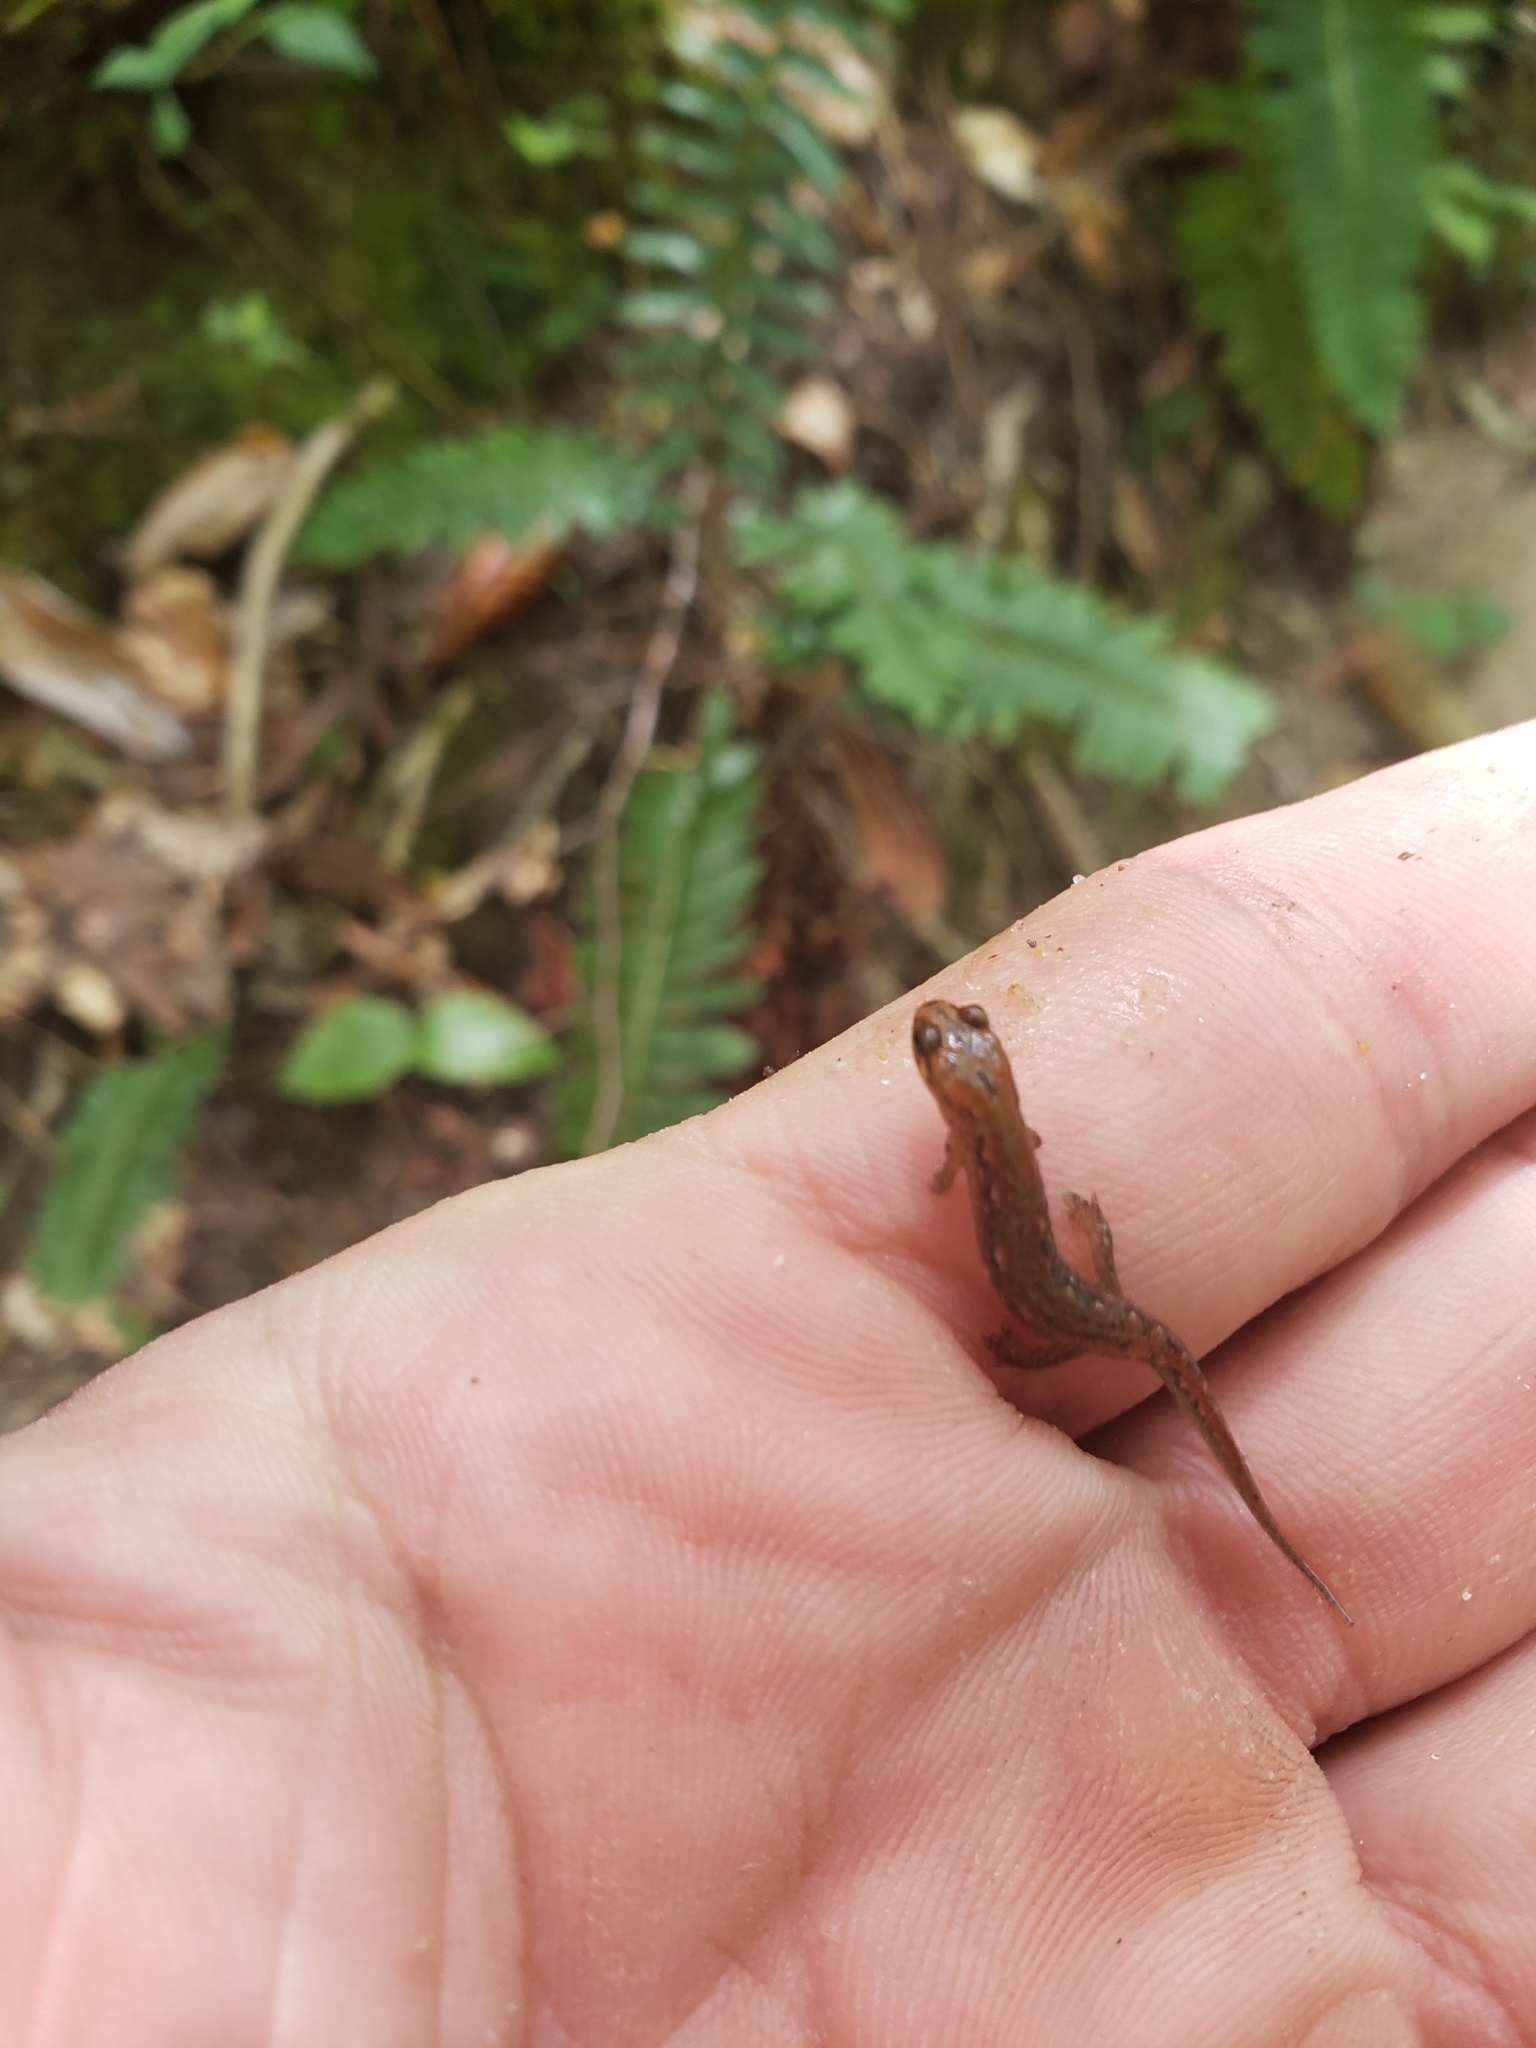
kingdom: Animalia
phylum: Chordata
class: Amphibia
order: Caudata
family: Plethodontidae
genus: Desmognathus
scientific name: Desmognathus
